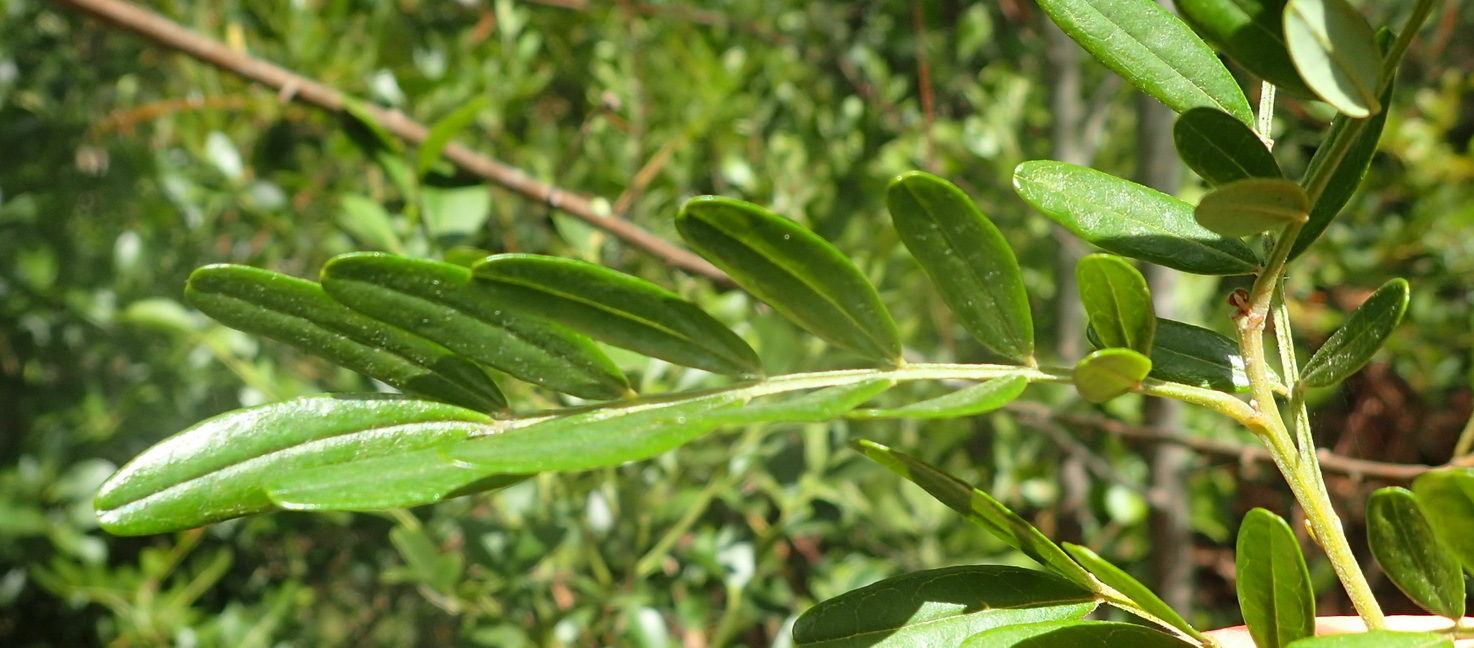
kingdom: Plantae
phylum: Tracheophyta
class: Magnoliopsida
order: Fabales
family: Fabaceae
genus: Virgilia
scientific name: Virgilia divaricata
